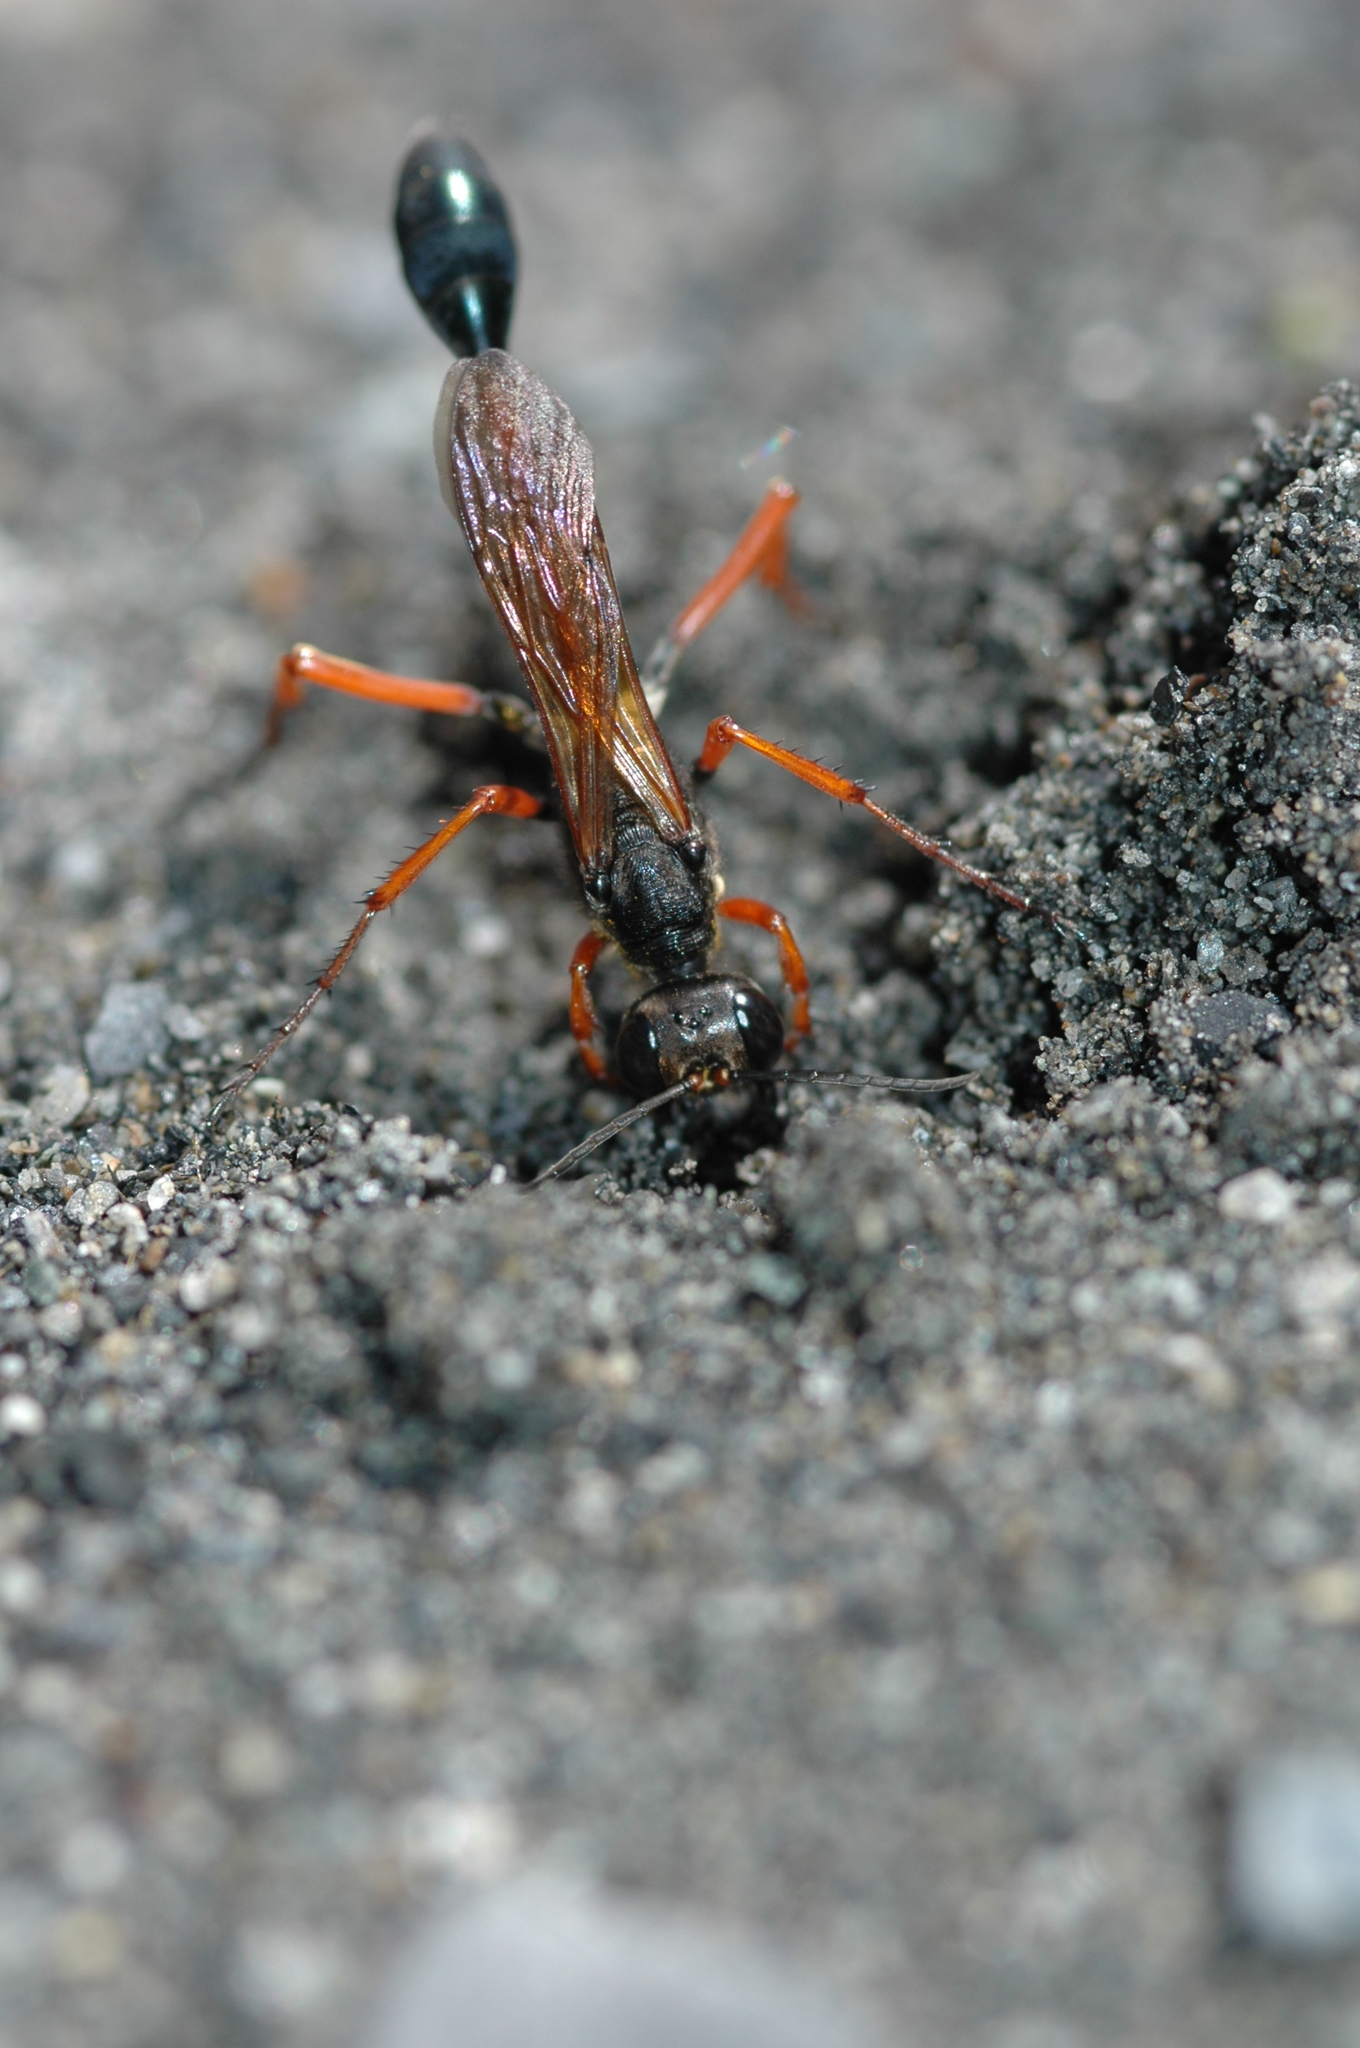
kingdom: Animalia
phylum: Arthropoda
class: Insecta
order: Hymenoptera
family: Sphecidae
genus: Ammophila
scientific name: Ammophila clavus
